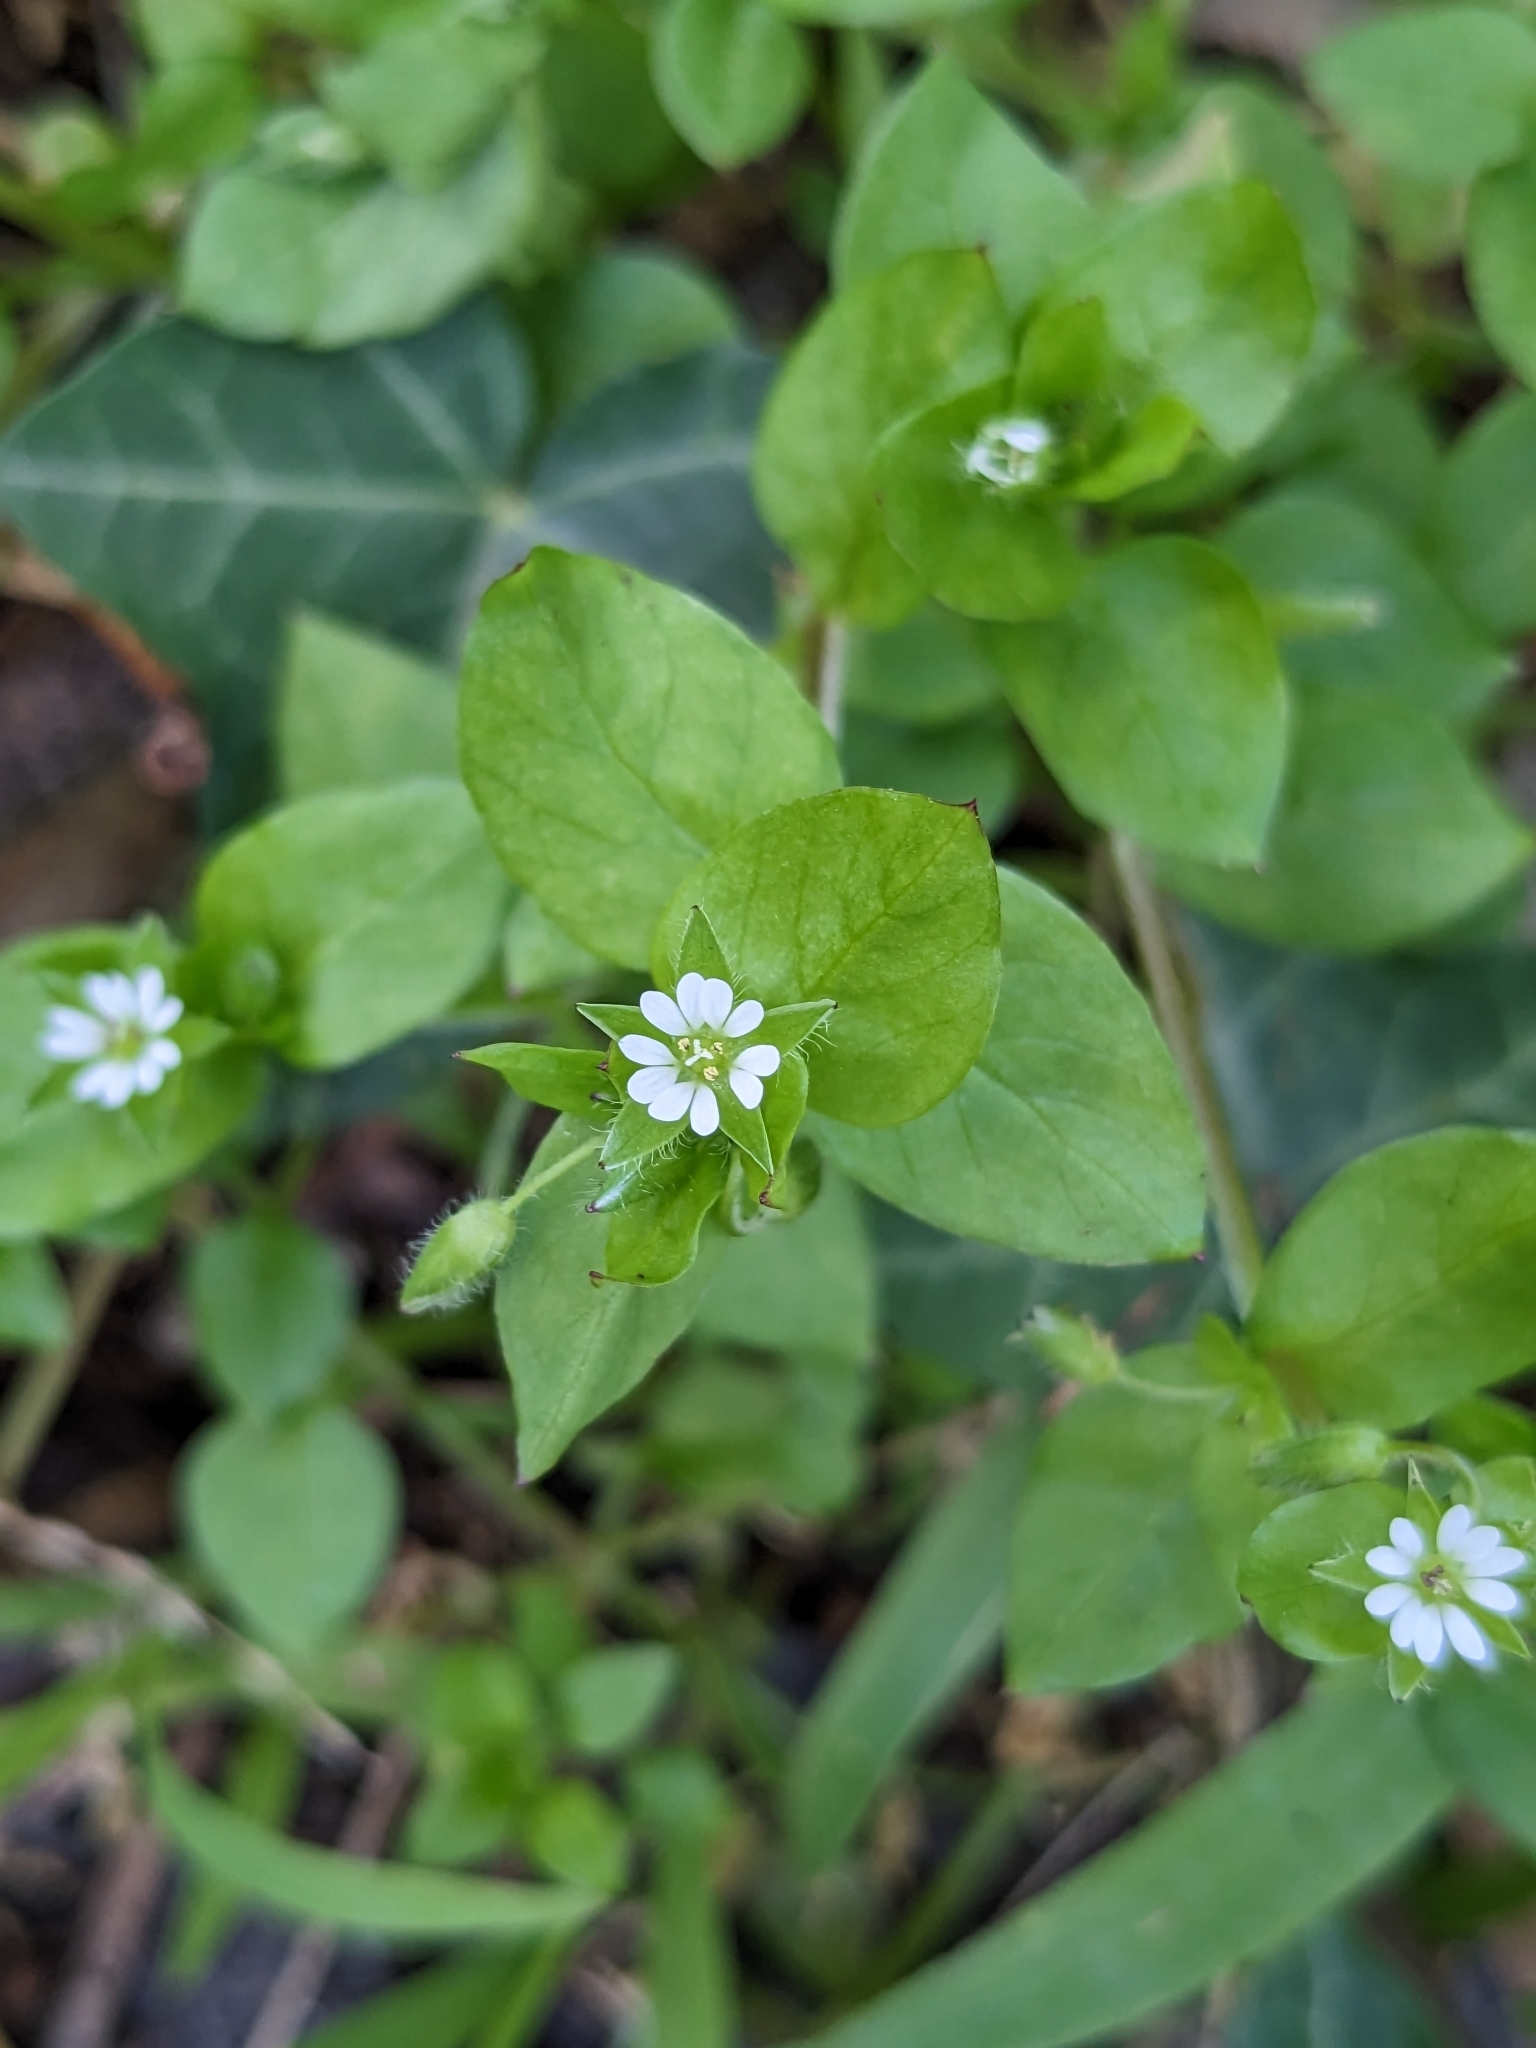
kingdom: Plantae
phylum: Tracheophyta
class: Magnoliopsida
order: Caryophyllales
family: Caryophyllaceae
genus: Stellaria
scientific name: Stellaria media
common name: Common chickweed
